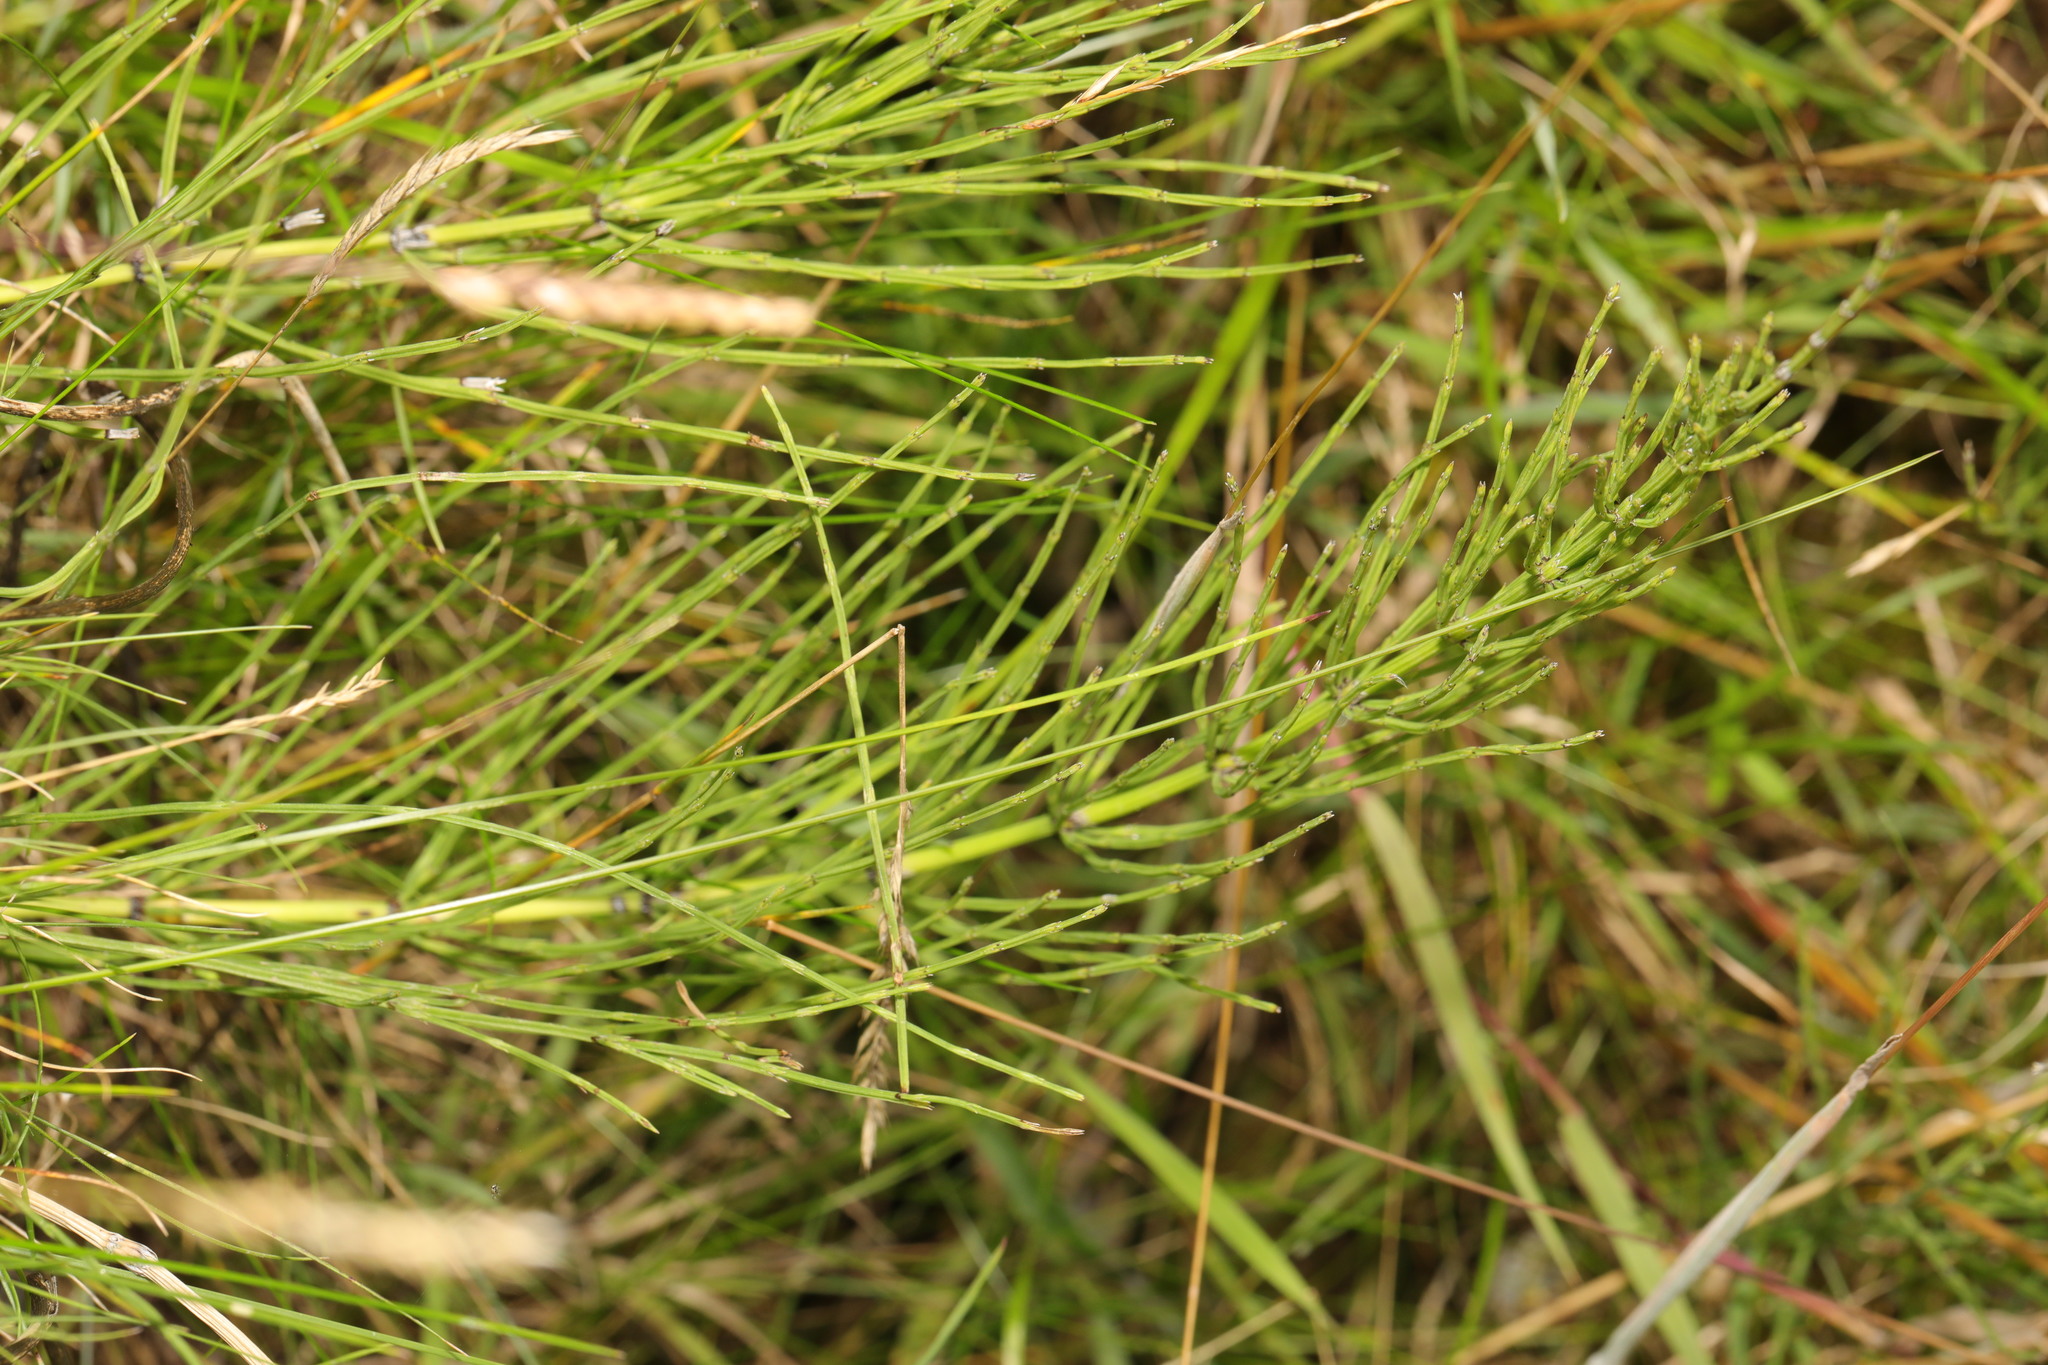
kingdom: Plantae
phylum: Tracheophyta
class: Polypodiopsida
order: Equisetales
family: Equisetaceae
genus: Equisetum
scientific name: Equisetum arvense
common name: Field horsetail
